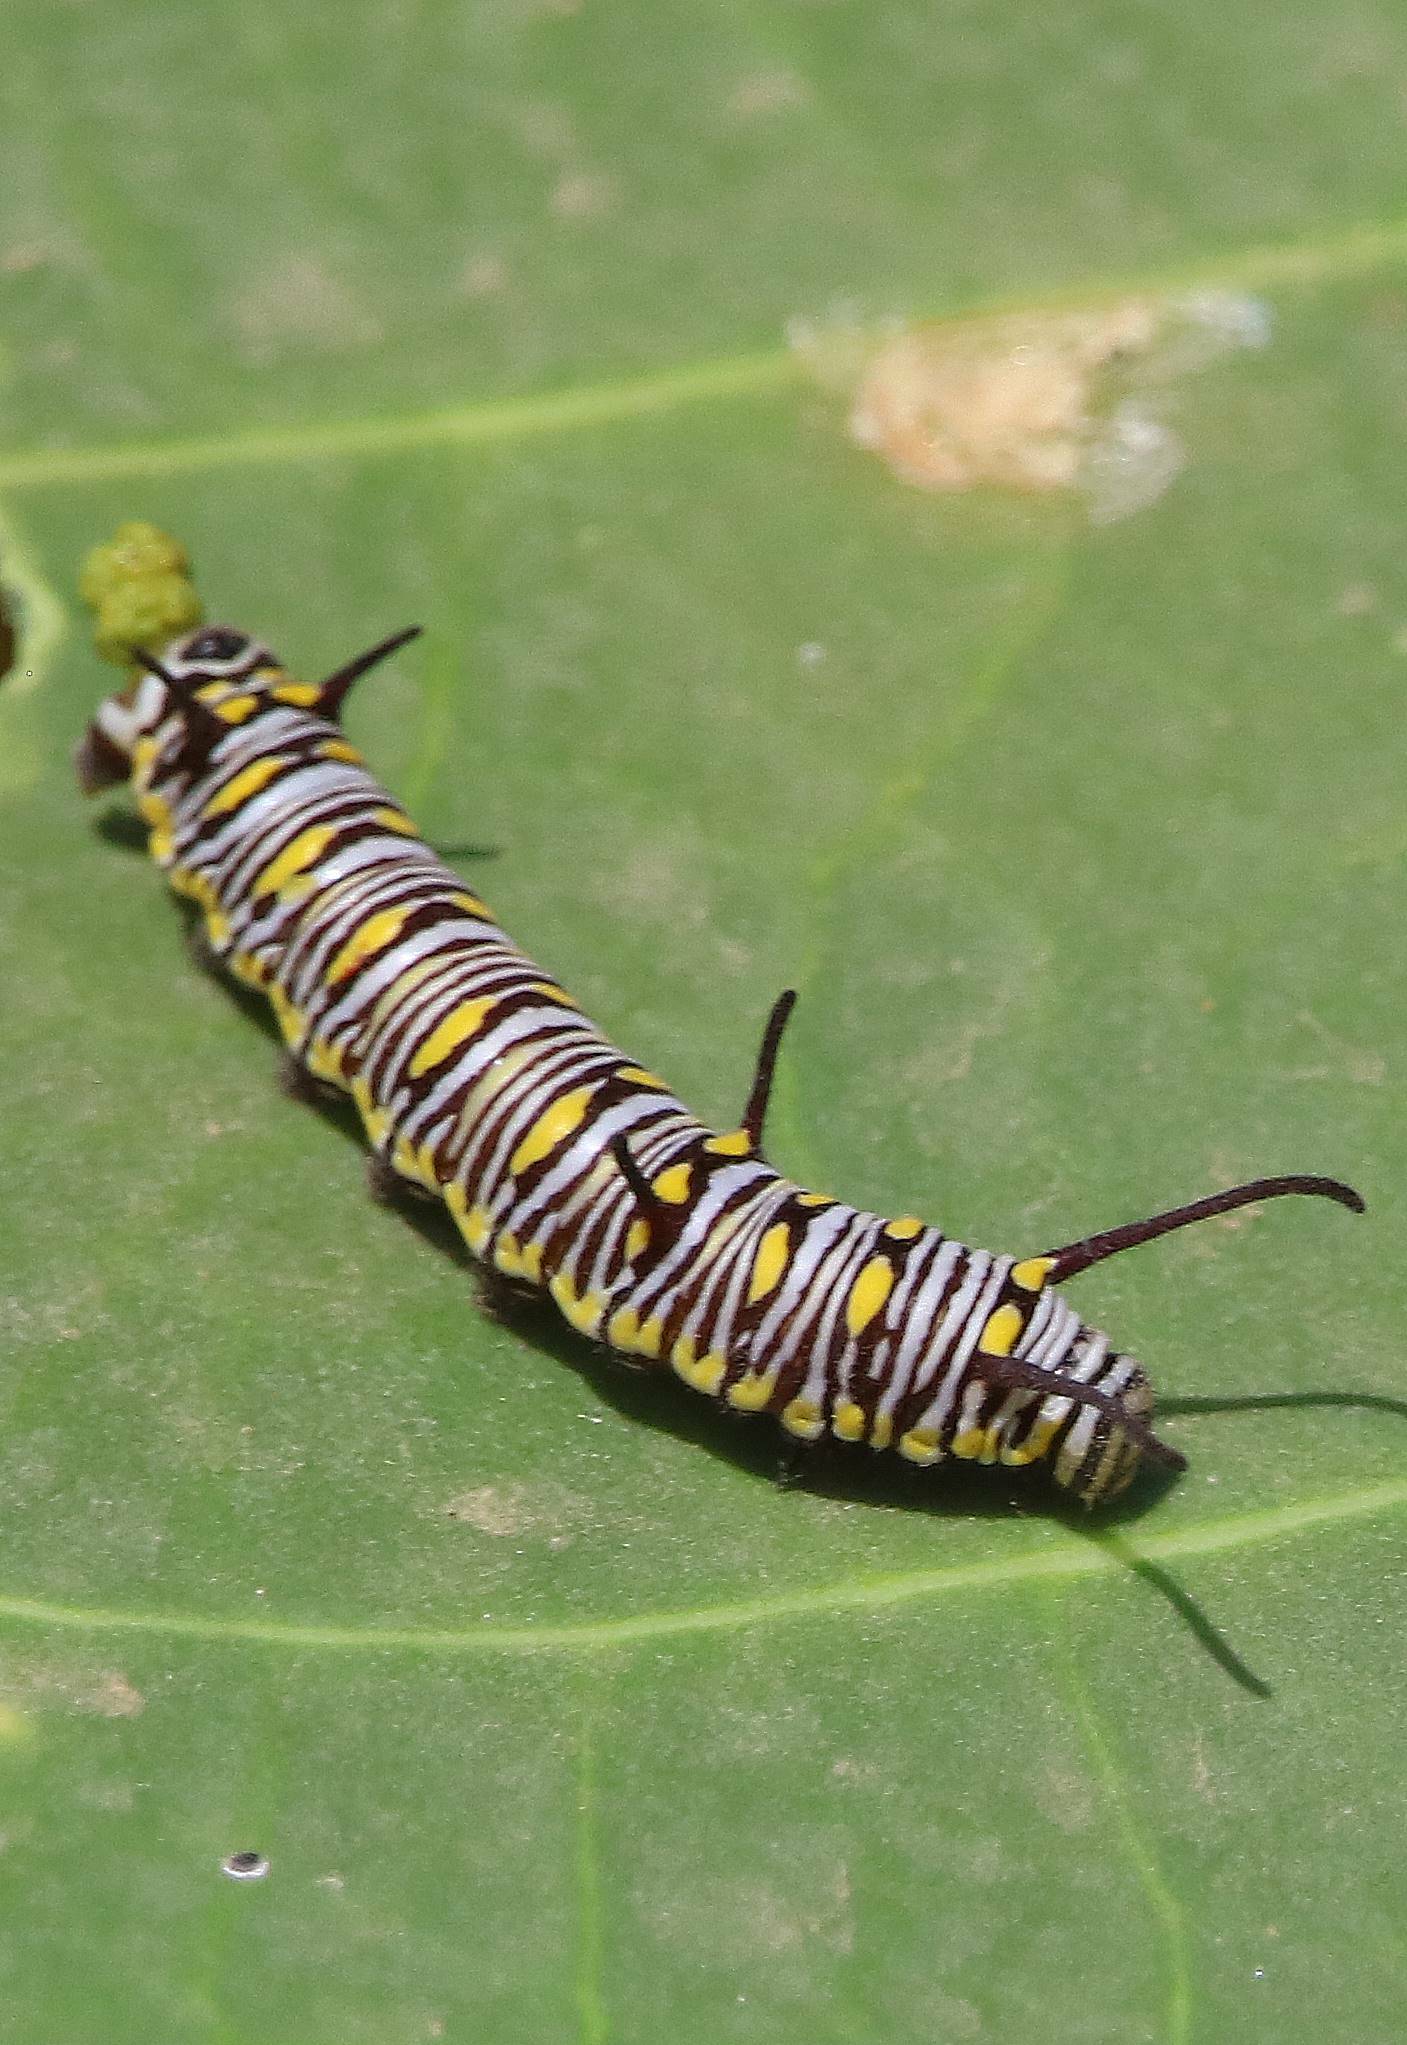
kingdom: Animalia
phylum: Arthropoda
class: Insecta
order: Lepidoptera
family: Nymphalidae
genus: Danaus
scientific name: Danaus chrysippus
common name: Plain tiger
